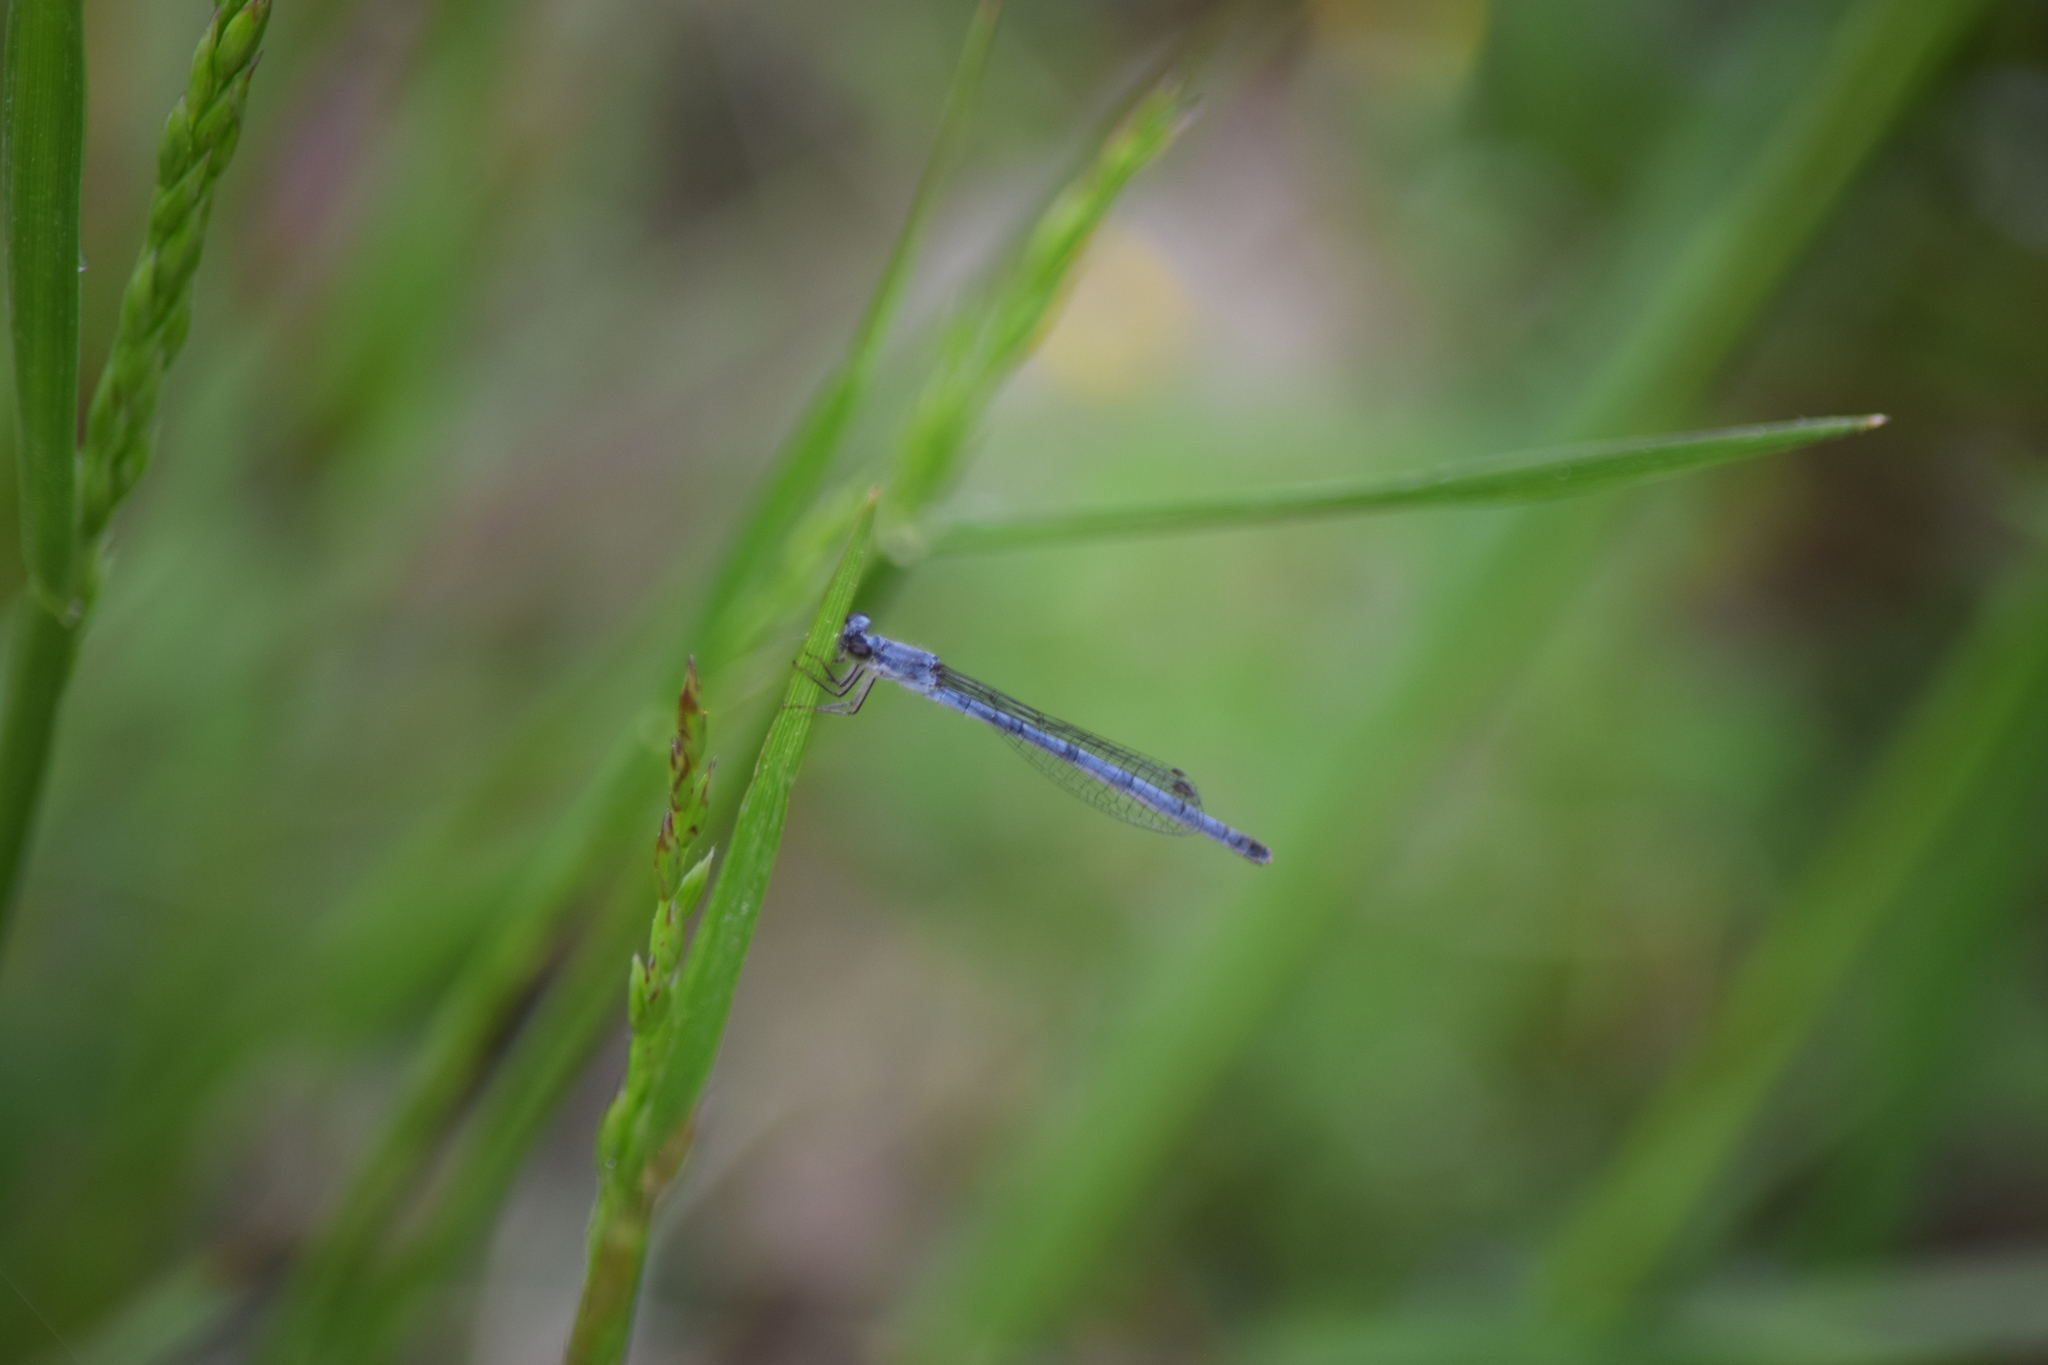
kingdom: Animalia
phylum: Arthropoda
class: Insecta
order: Odonata
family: Coenagrionidae
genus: Ischnura
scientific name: Ischnura posita
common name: Fragile forktail
